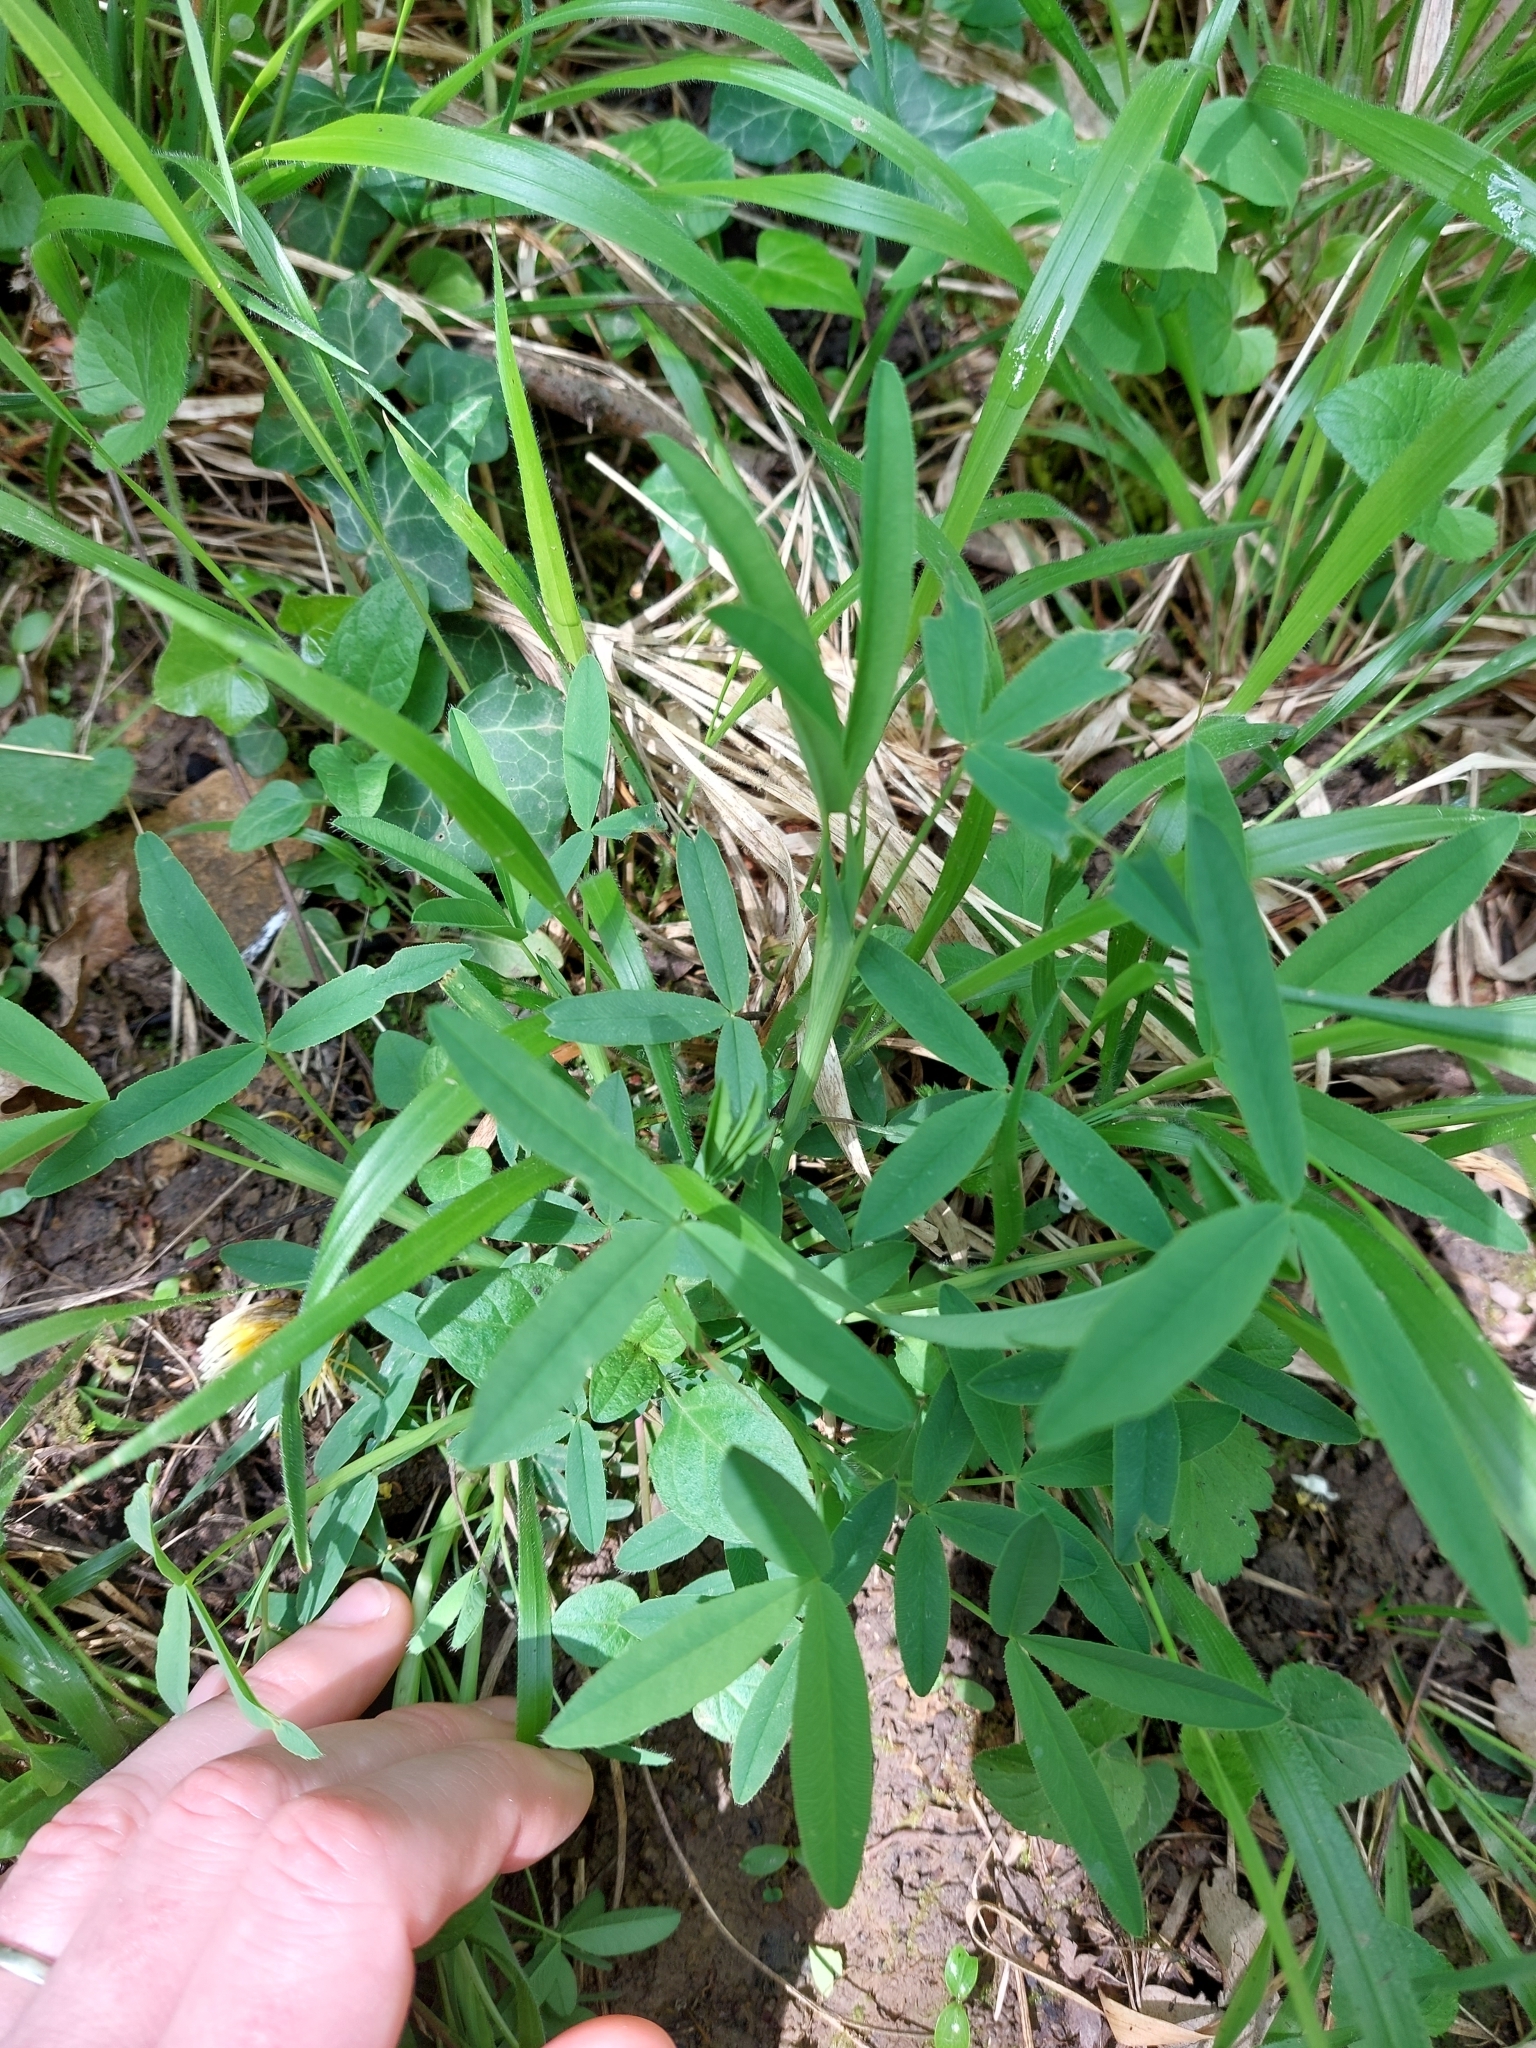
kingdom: Plantae
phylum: Tracheophyta
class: Magnoliopsida
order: Fabales
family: Fabaceae
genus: Trifolium
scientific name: Trifolium rubens
